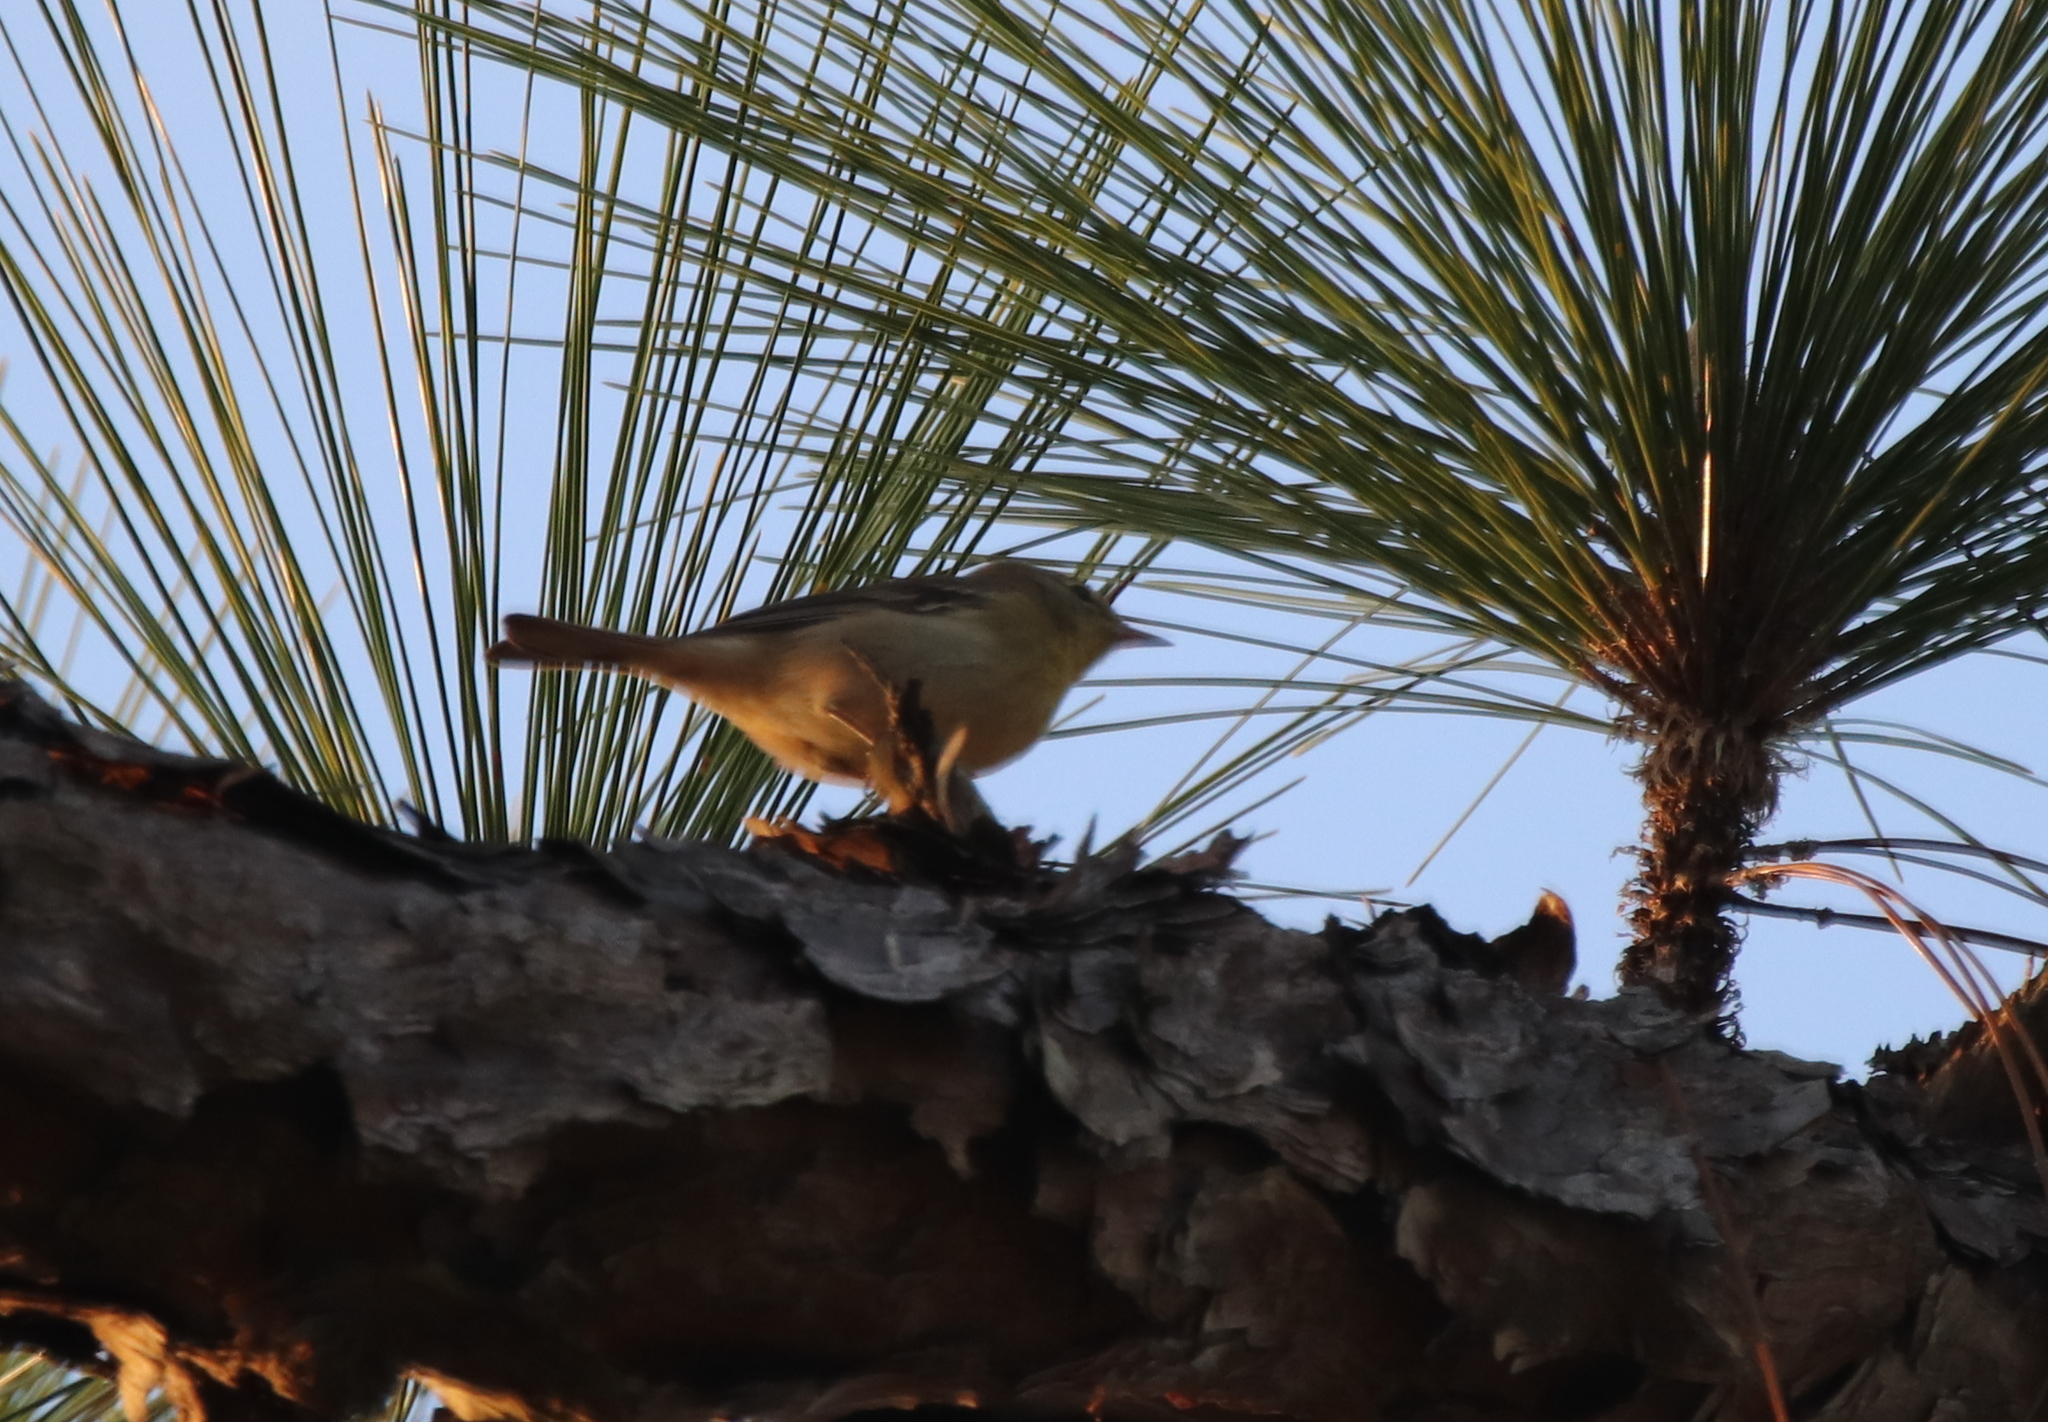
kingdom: Animalia
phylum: Chordata
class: Aves
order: Passeriformes
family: Parulidae
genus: Setophaga
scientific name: Setophaga pinus
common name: Pine warbler
